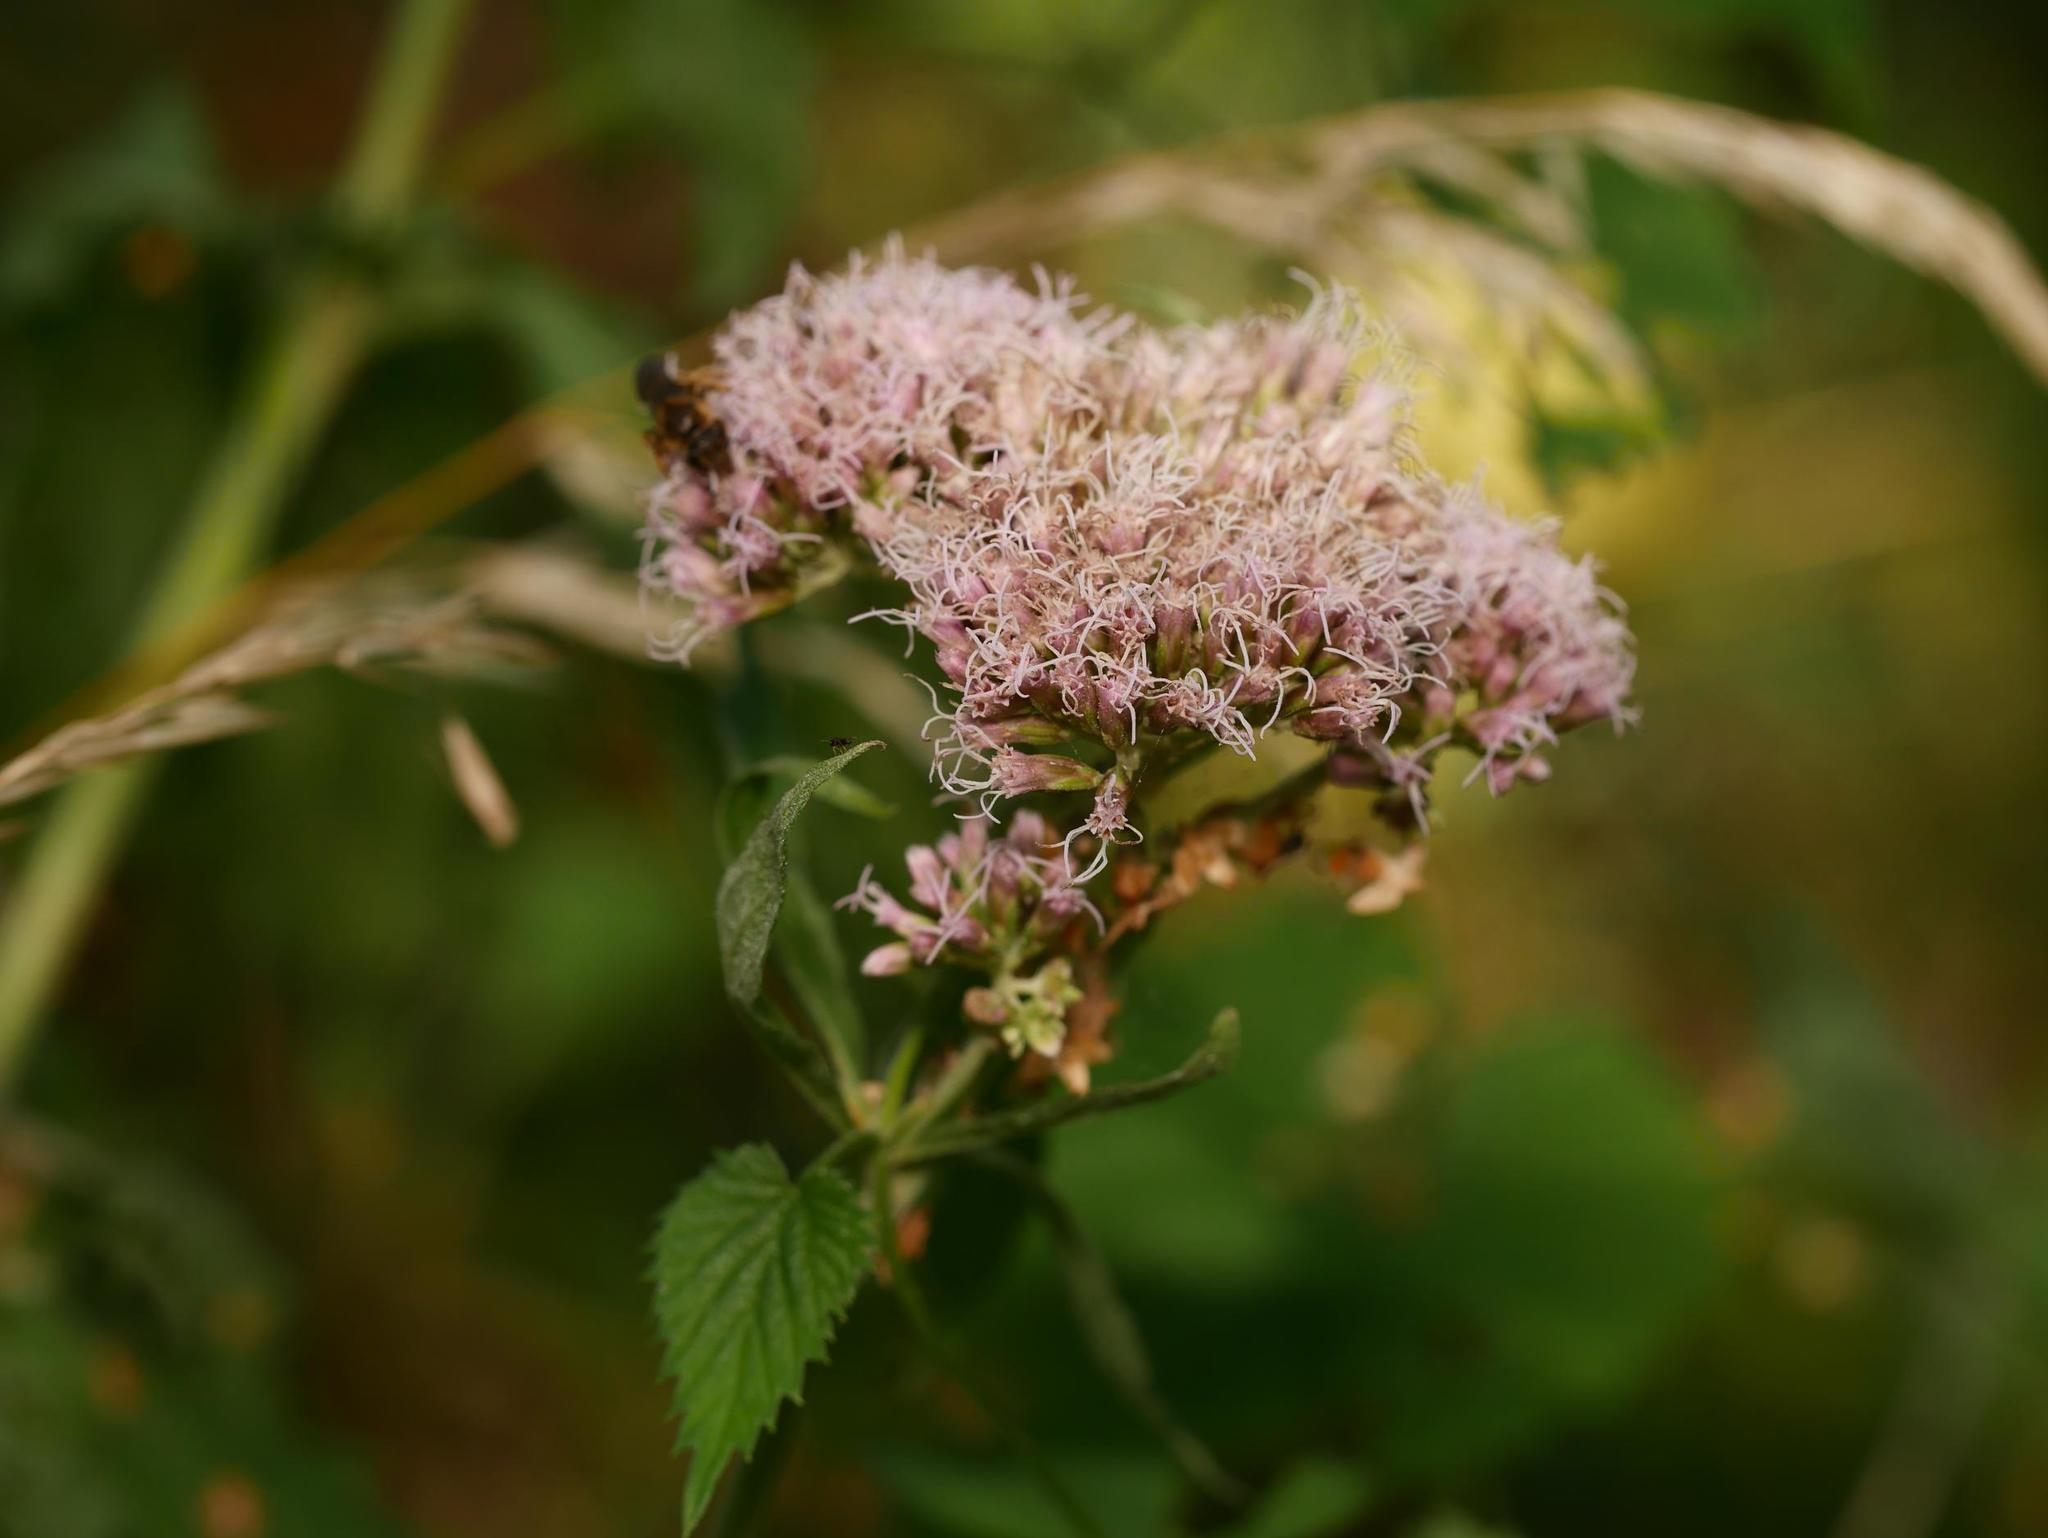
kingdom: Plantae
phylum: Tracheophyta
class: Magnoliopsida
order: Asterales
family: Asteraceae
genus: Eupatorium
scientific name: Eupatorium cannabinum
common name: Hemp-agrimony
